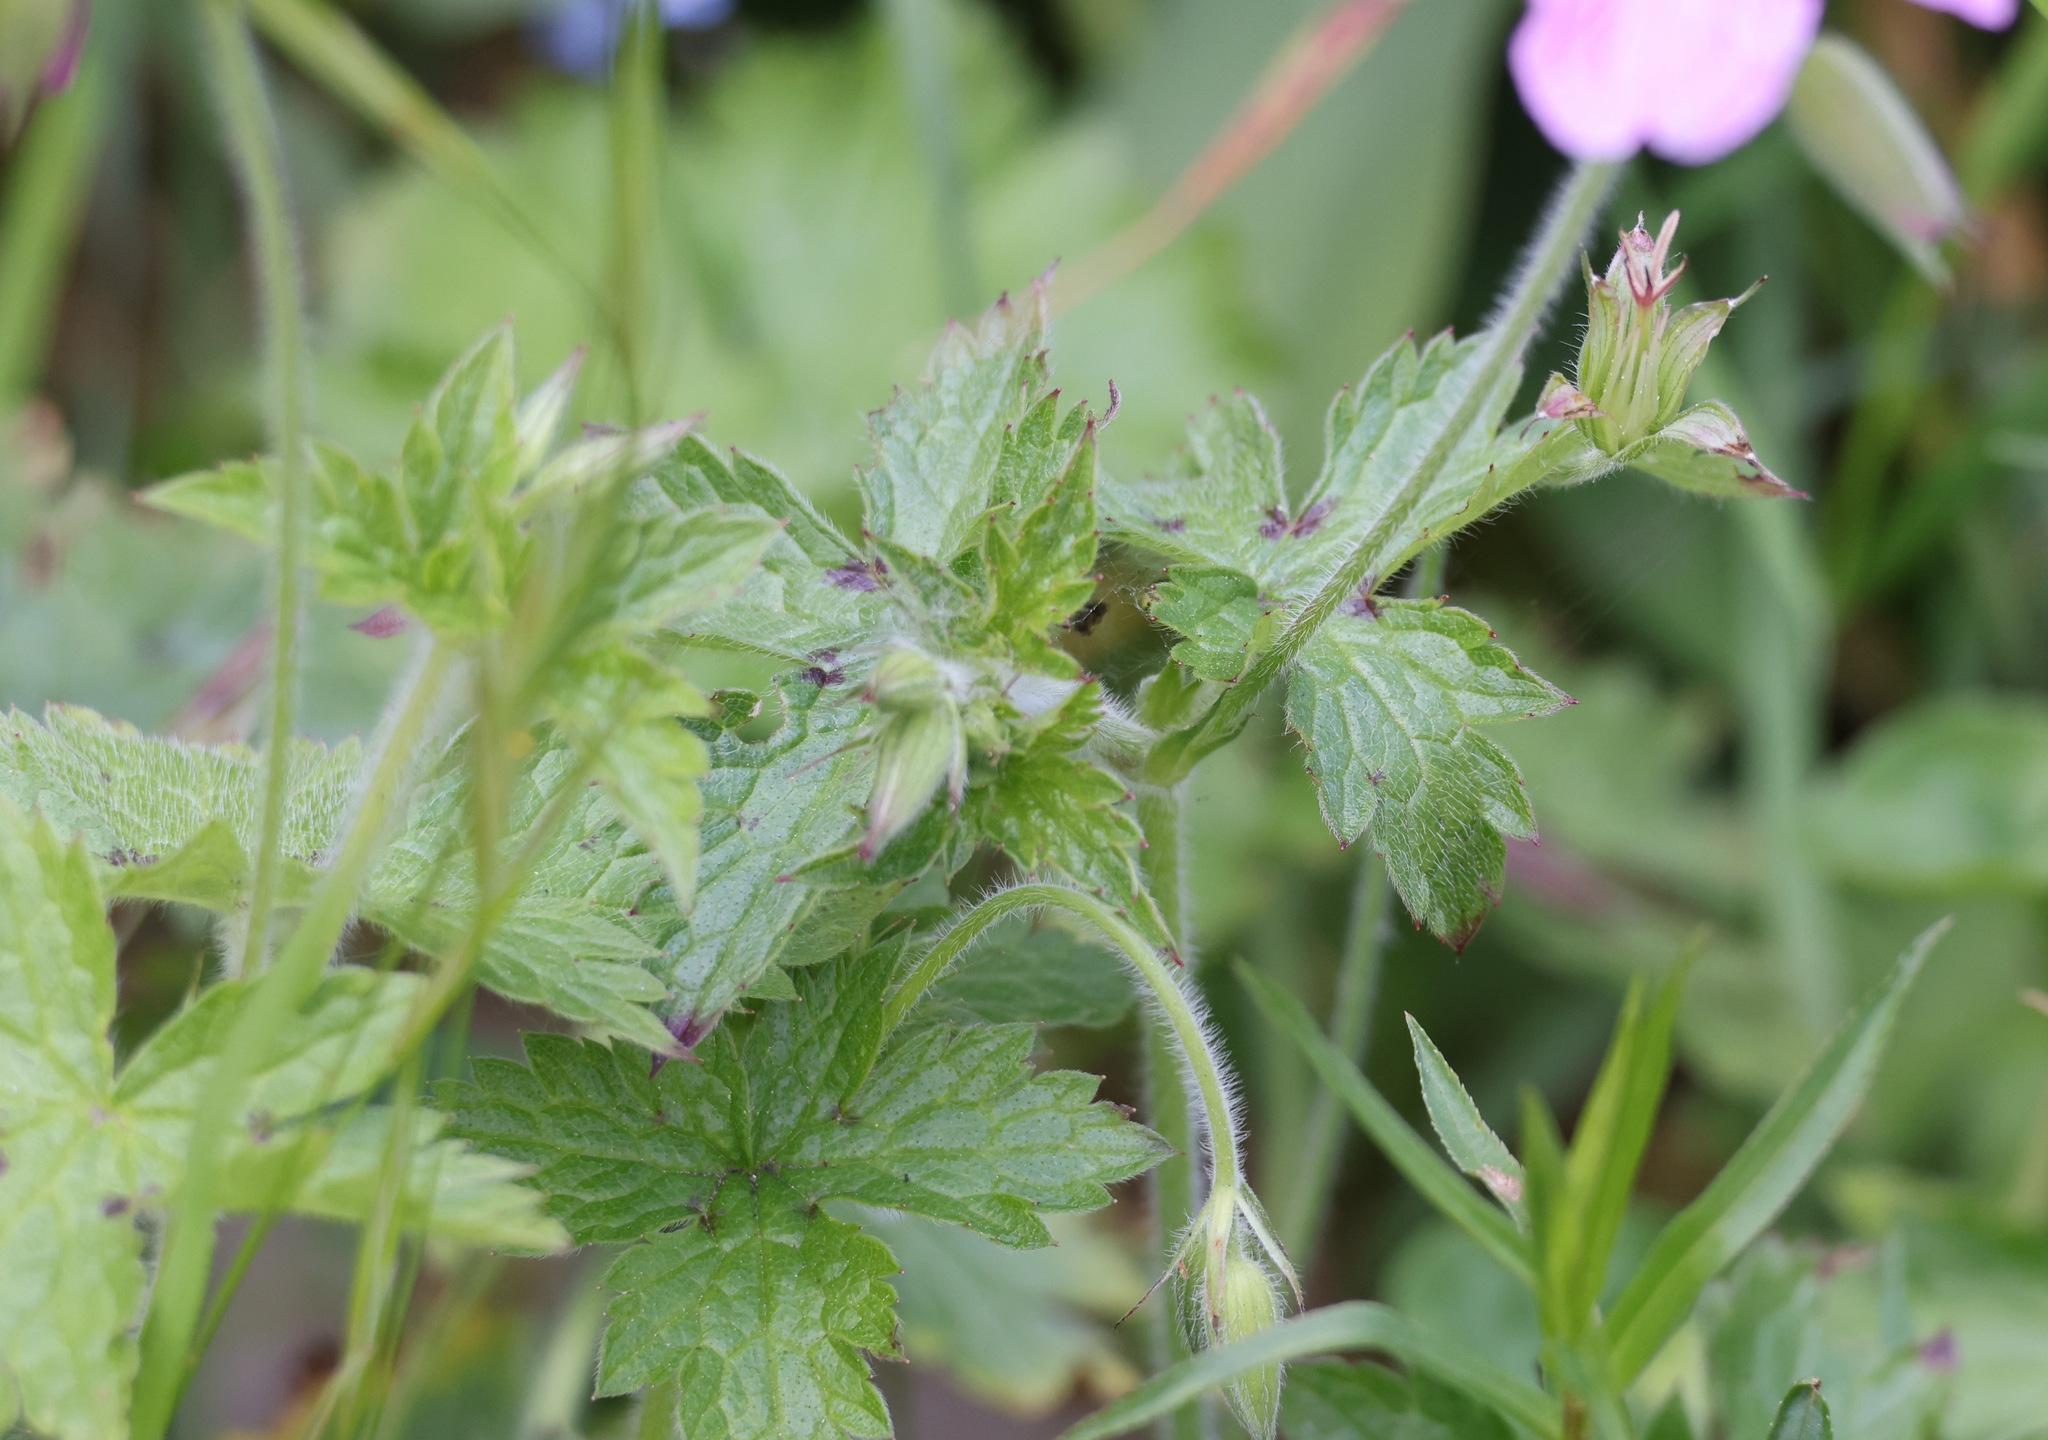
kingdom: Plantae
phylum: Tracheophyta
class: Magnoliopsida
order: Geraniales
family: Geraniaceae
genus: Geranium
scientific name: Geranium oxonianum
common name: Druce's crane's-bill
